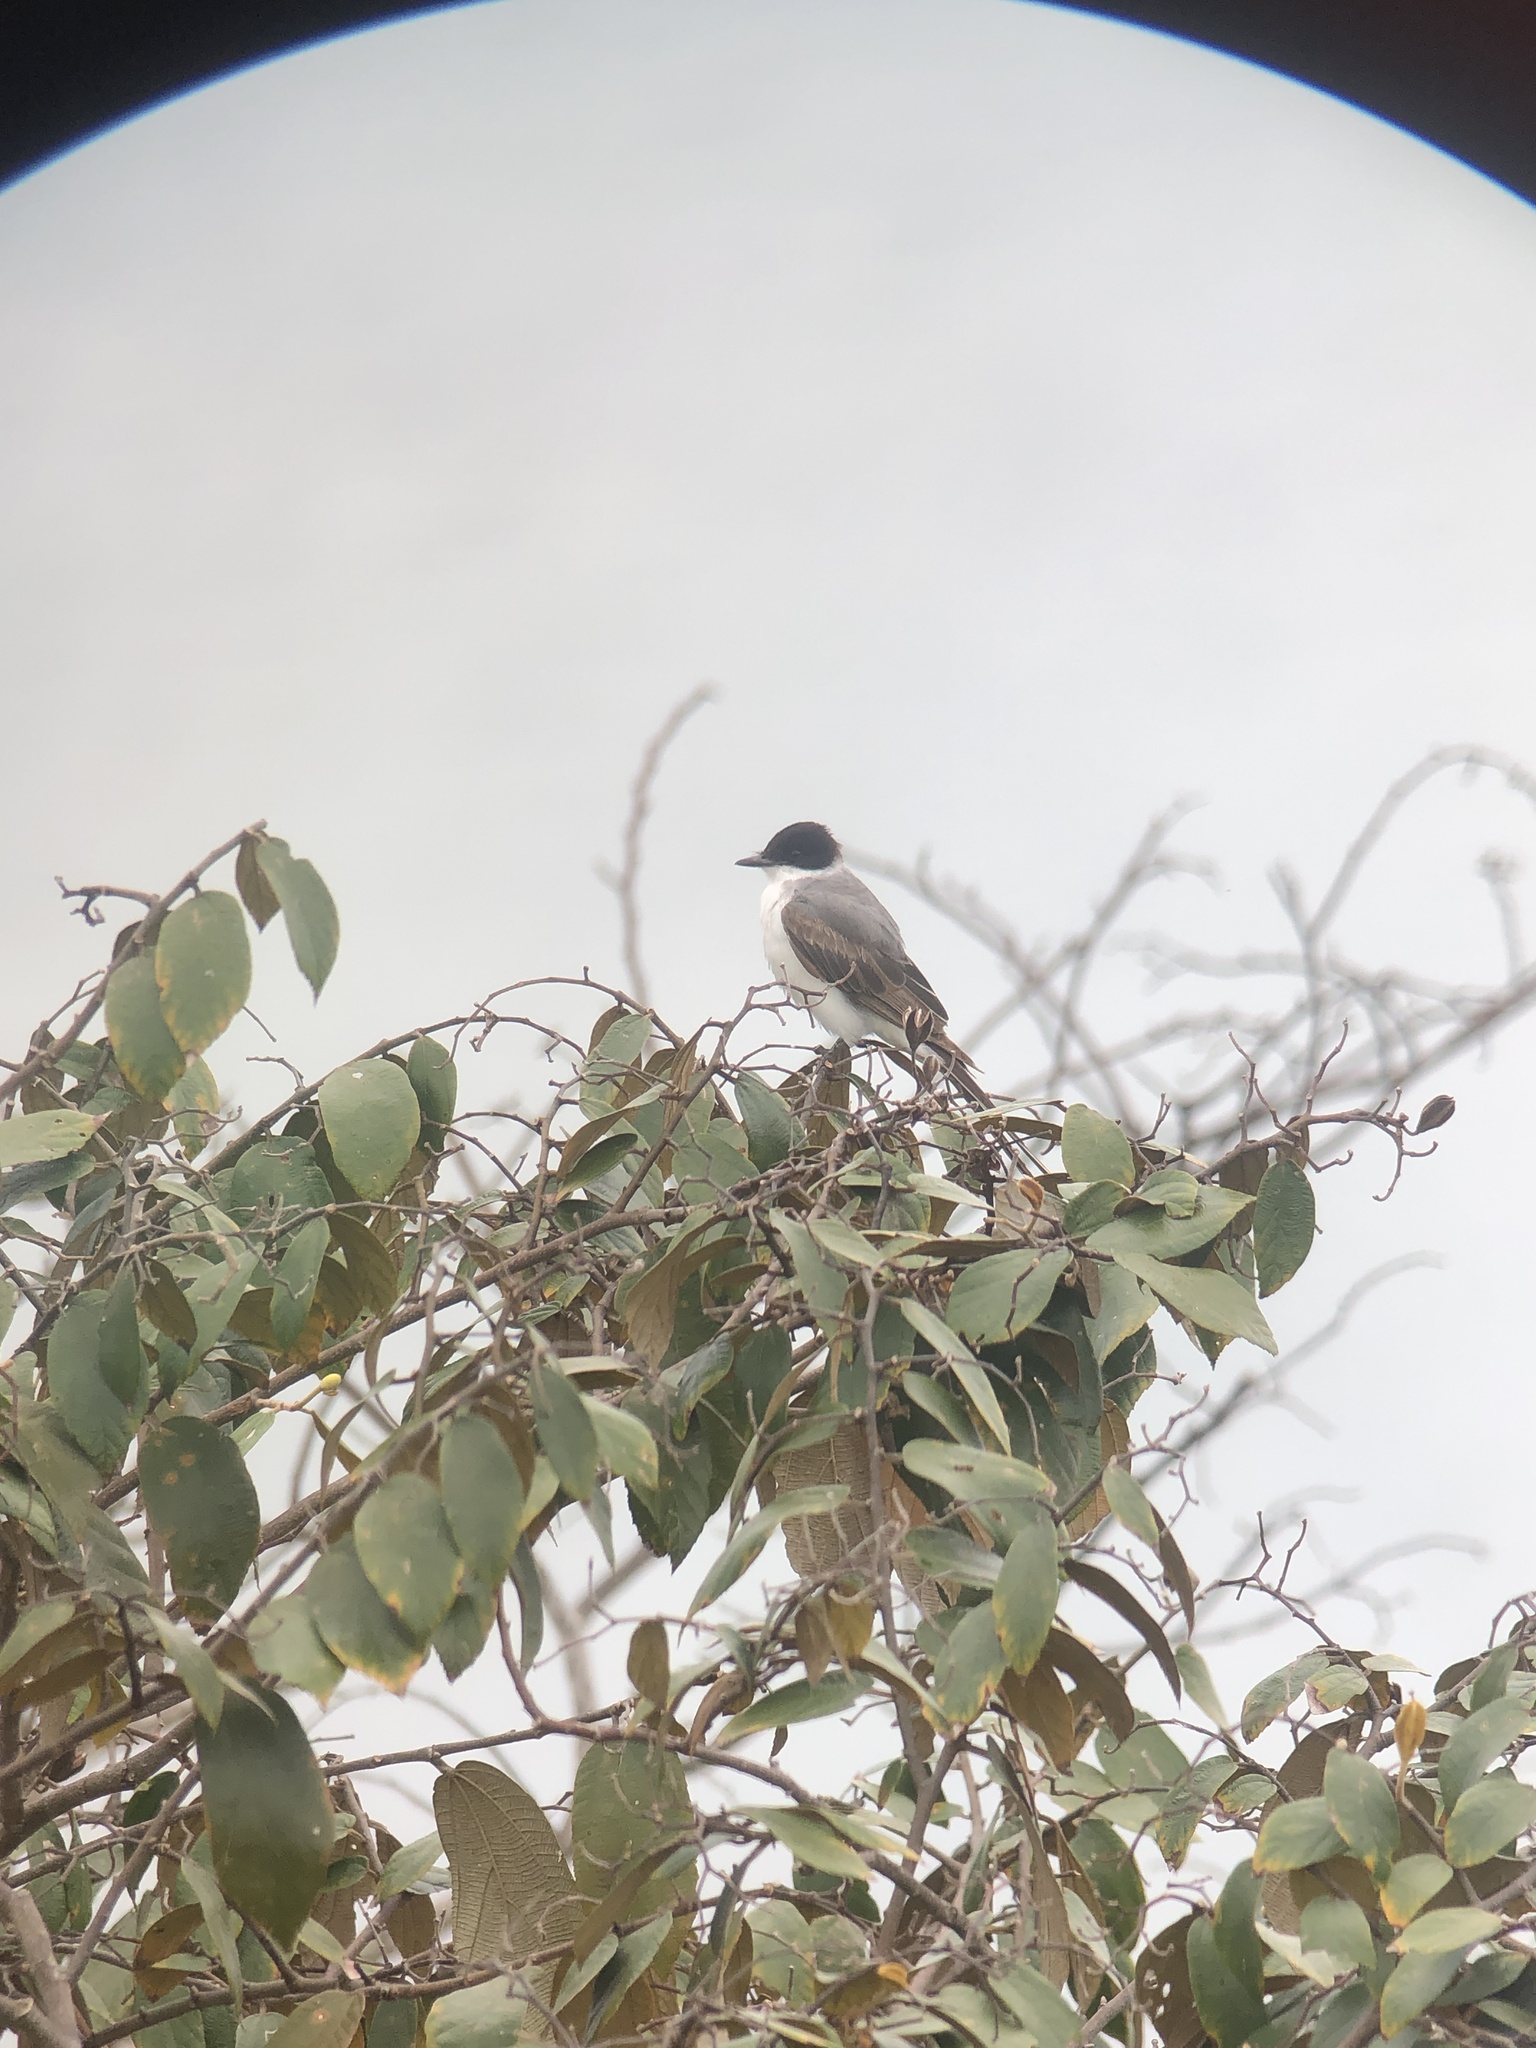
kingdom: Animalia
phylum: Chordata
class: Aves
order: Passeriformes
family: Tyrannidae
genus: Tyrannus
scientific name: Tyrannus savana
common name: Fork-tailed flycatcher
